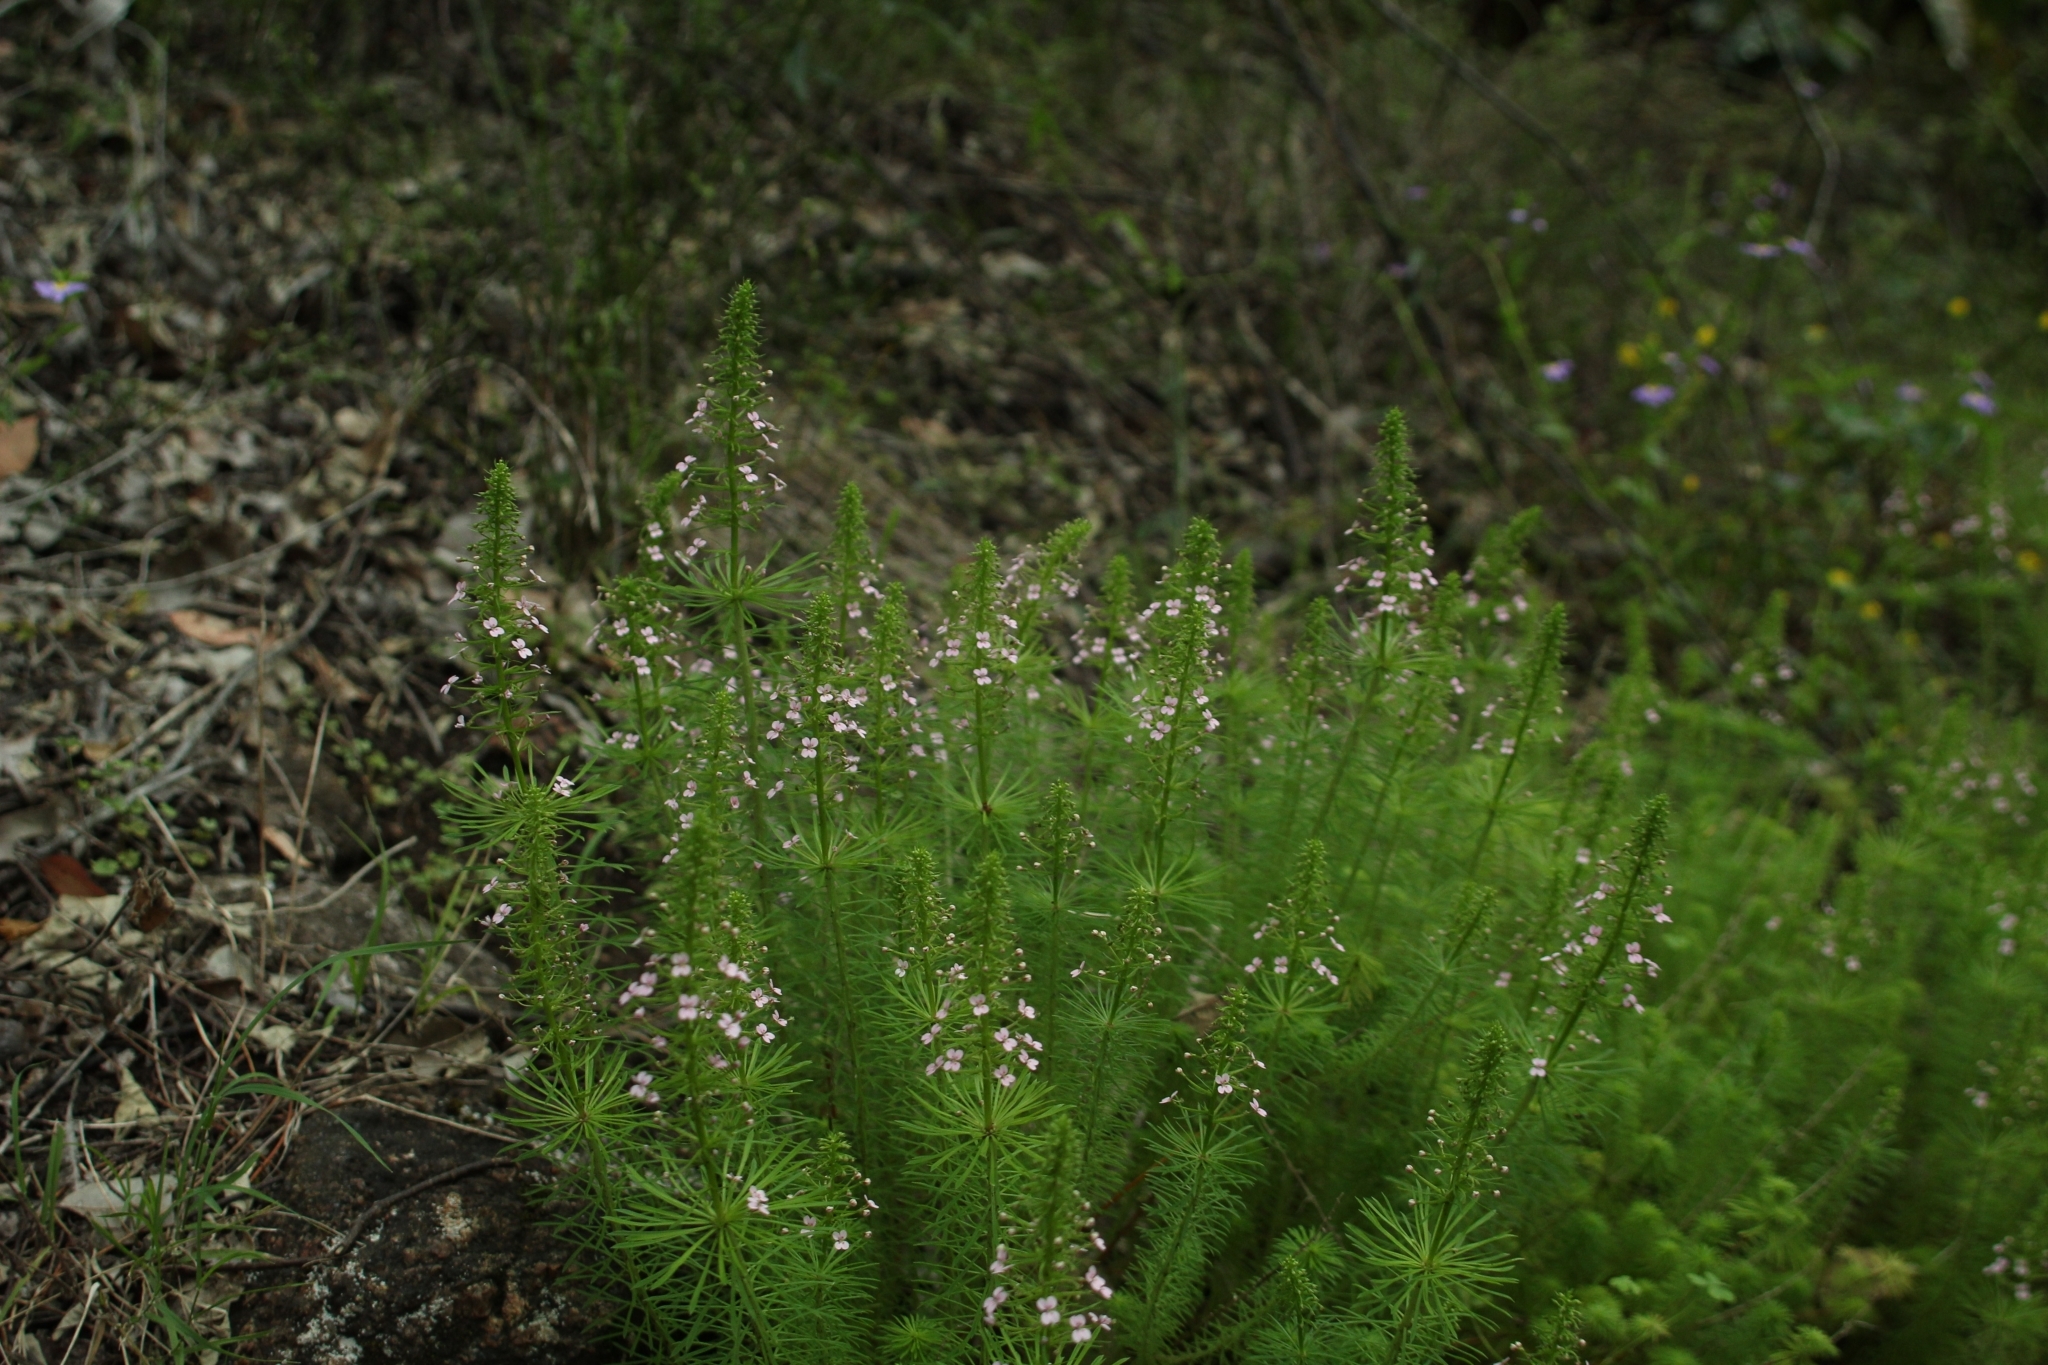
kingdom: Plantae
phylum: Tracheophyta
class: Magnoliopsida
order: Asterales
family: Stylidiaceae
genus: Stylidium
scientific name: Stylidium adnatum
